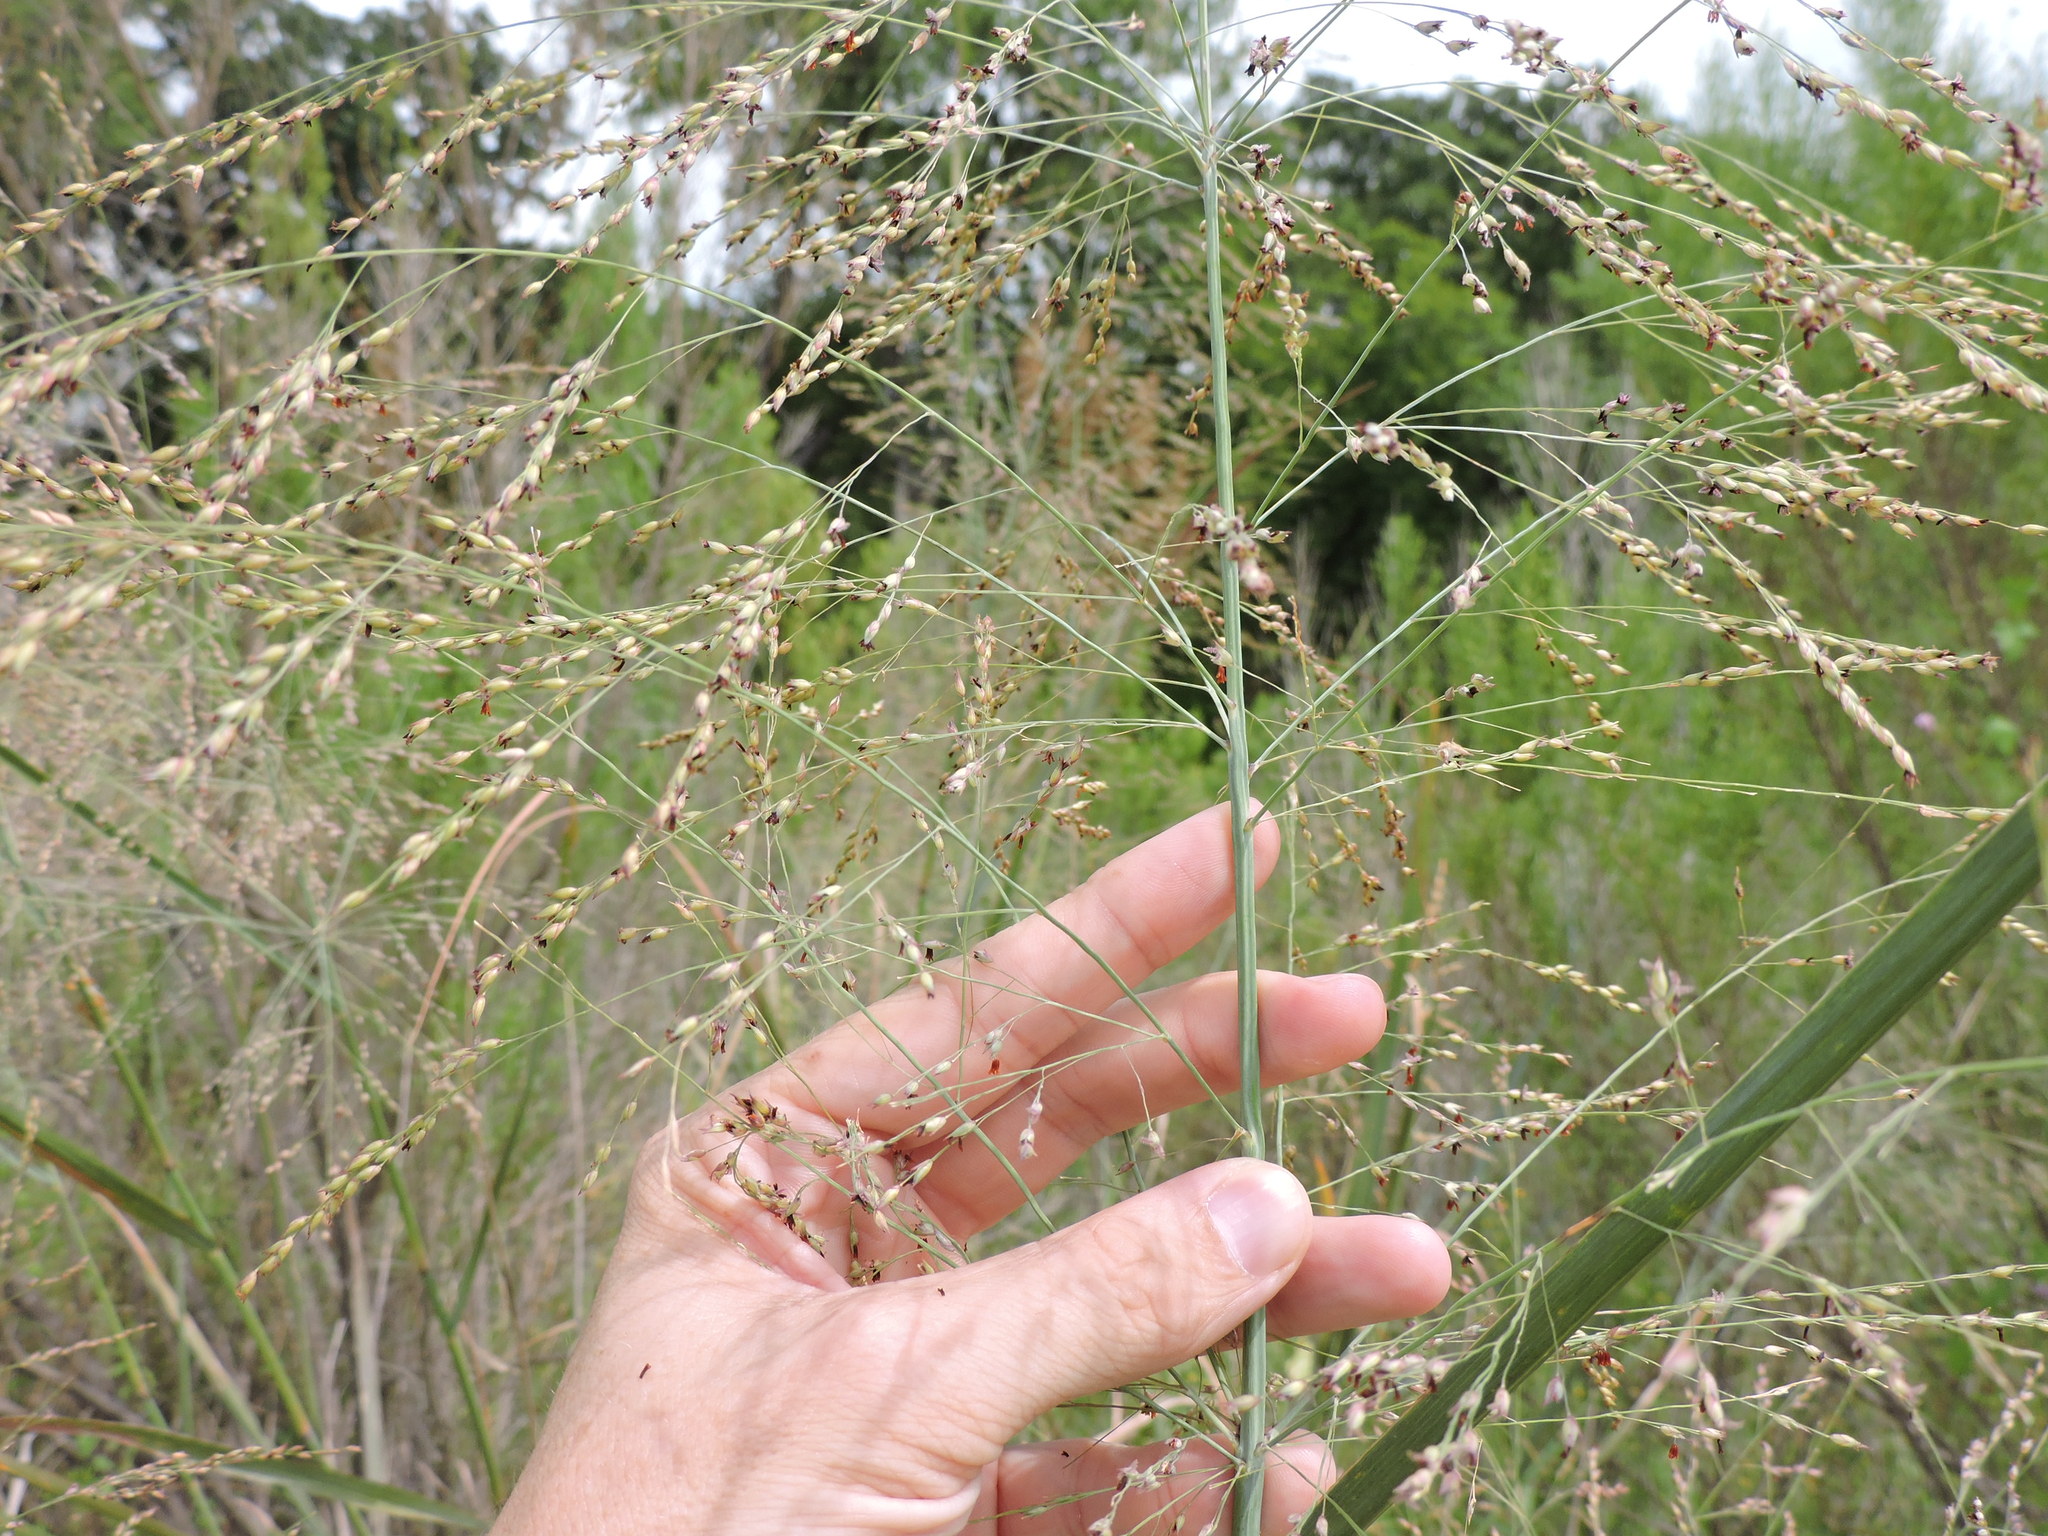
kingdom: Plantae
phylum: Tracheophyta
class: Liliopsida
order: Poales
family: Poaceae
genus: Panicum
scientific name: Panicum virgatum
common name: Switchgrass
